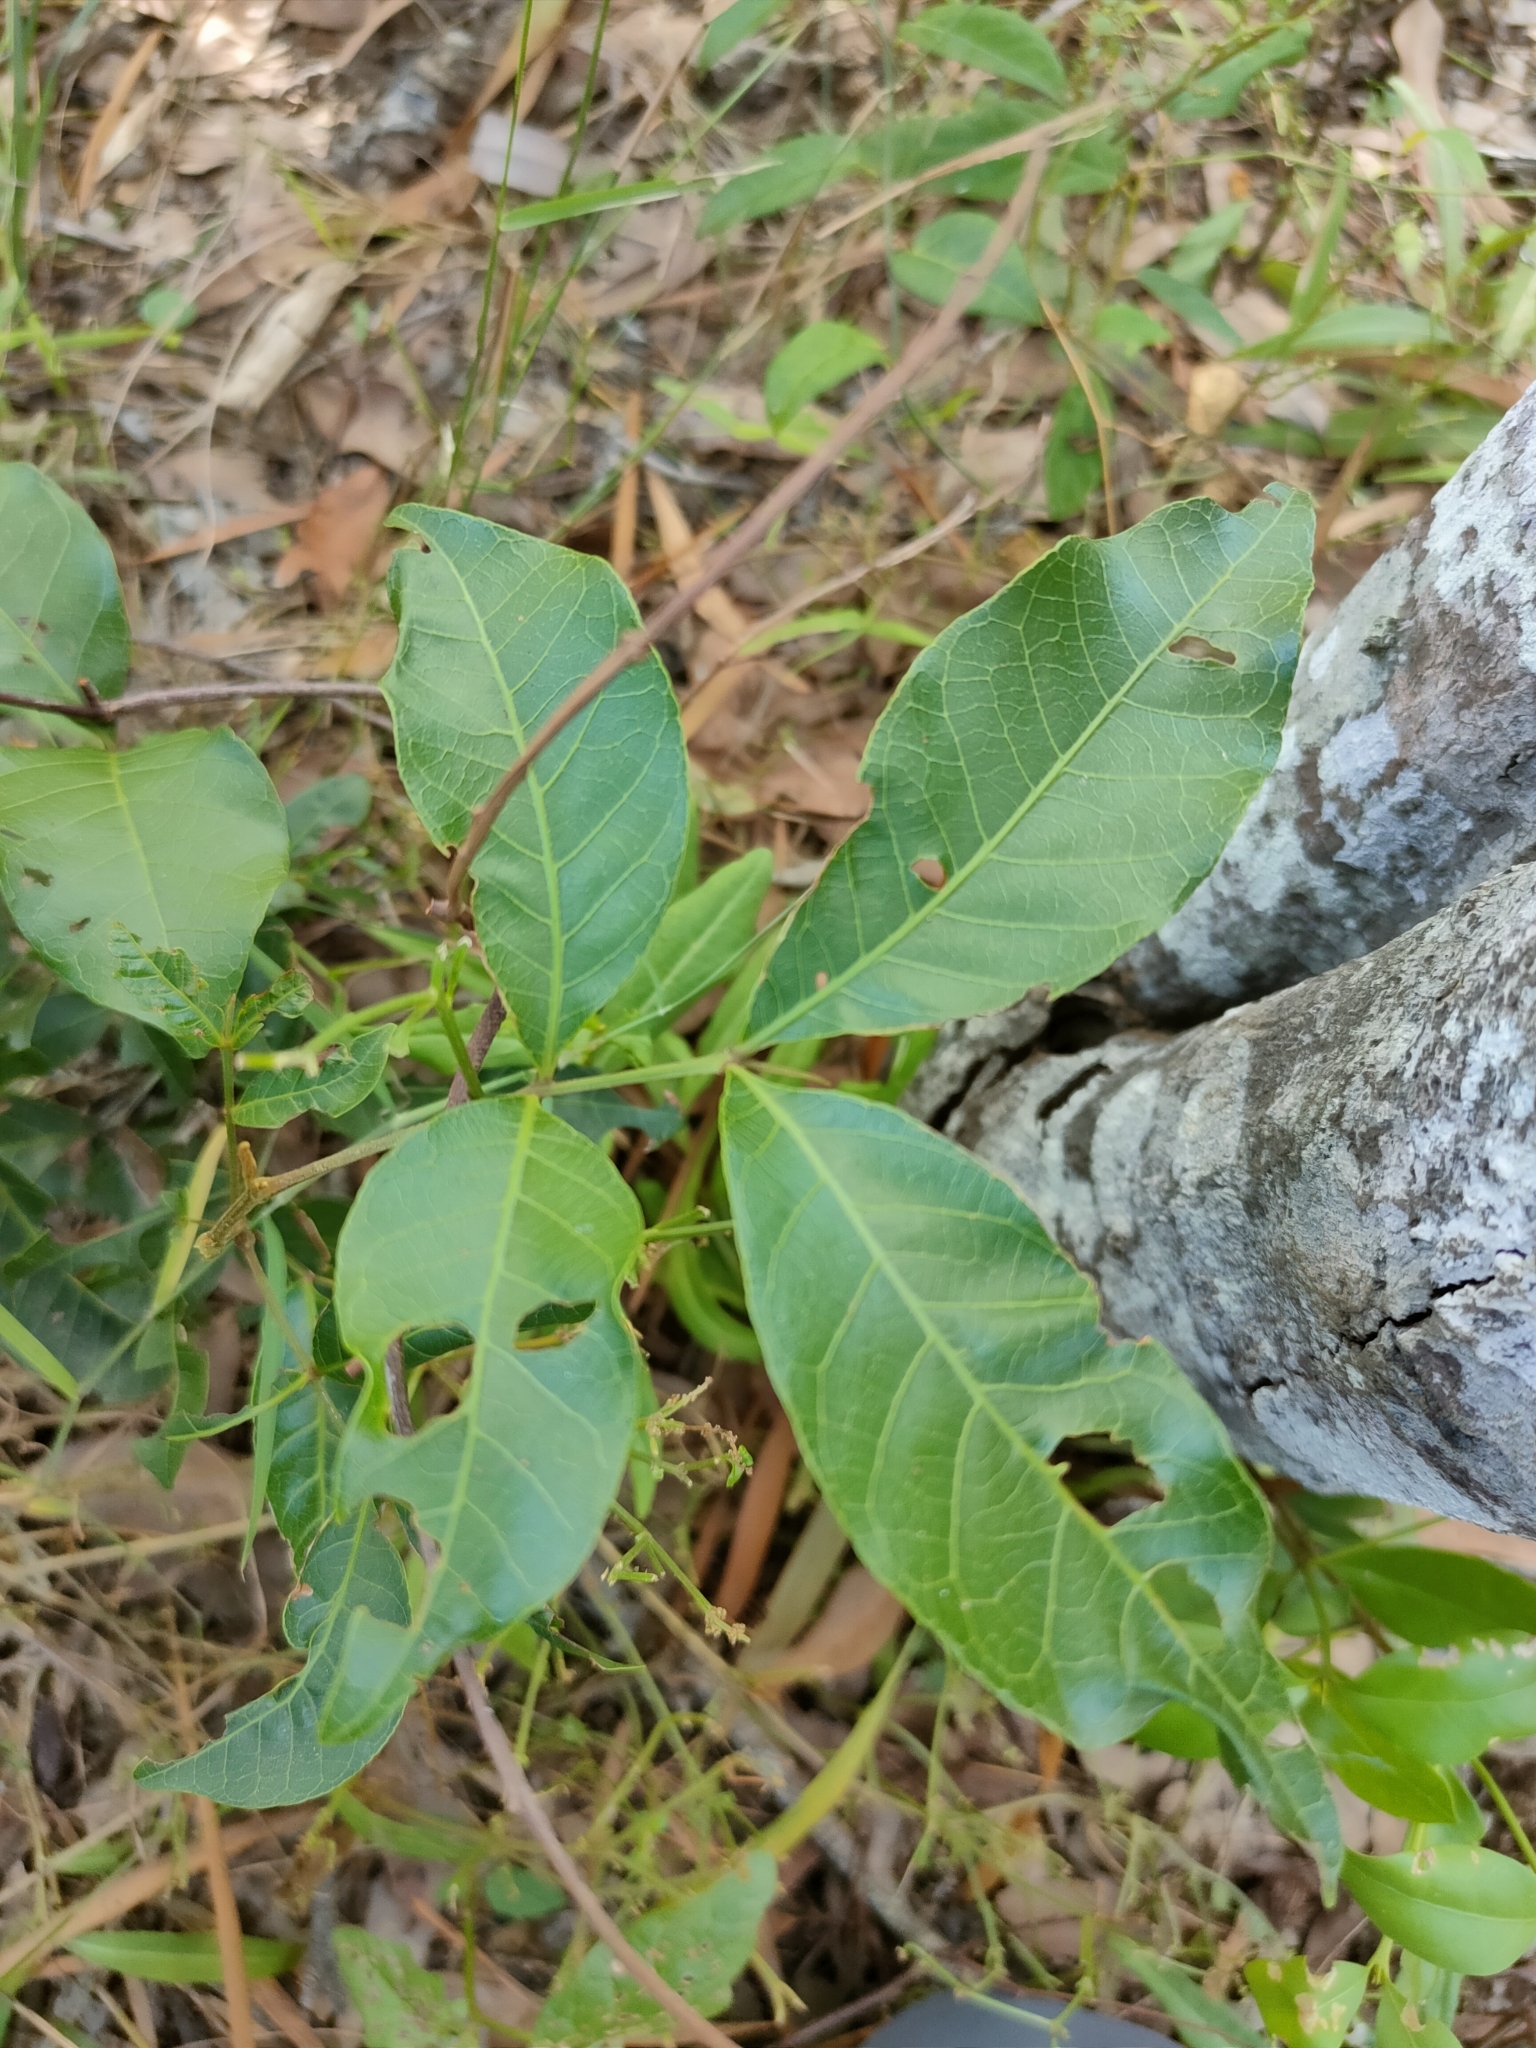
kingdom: Plantae
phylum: Tracheophyta
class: Magnoliopsida
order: Sapindales
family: Sapindaceae
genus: Alectryon
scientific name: Alectryon connatus
